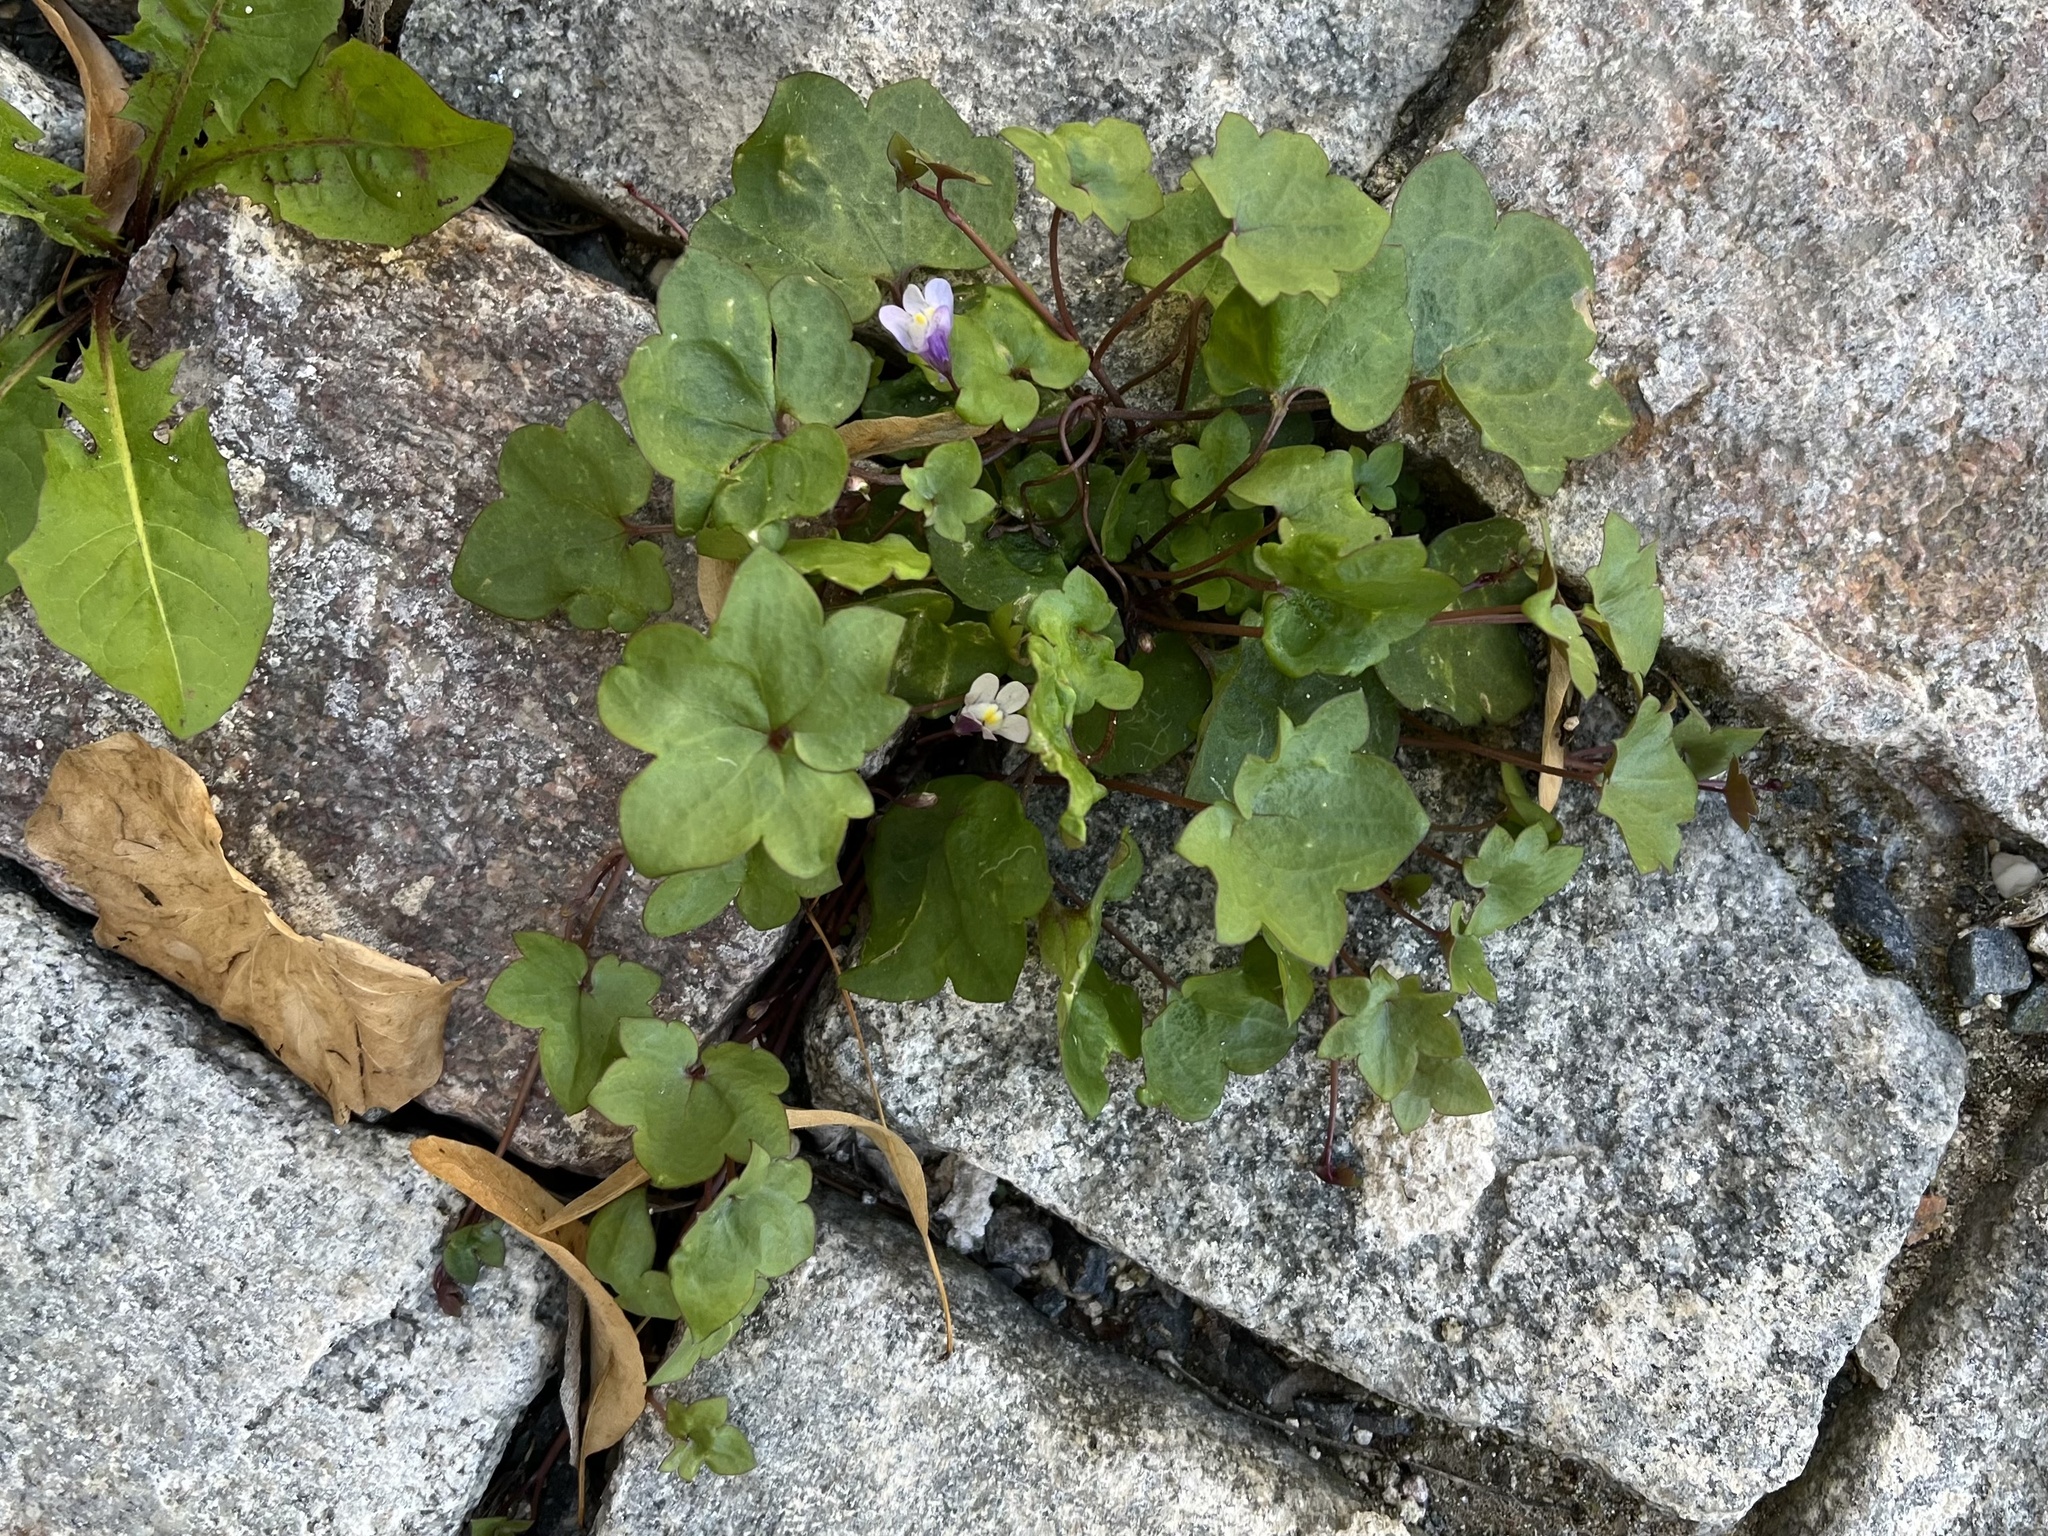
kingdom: Plantae
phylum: Tracheophyta
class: Magnoliopsida
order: Lamiales
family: Plantaginaceae
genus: Cymbalaria
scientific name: Cymbalaria muralis
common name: Ivy-leaved toadflax
